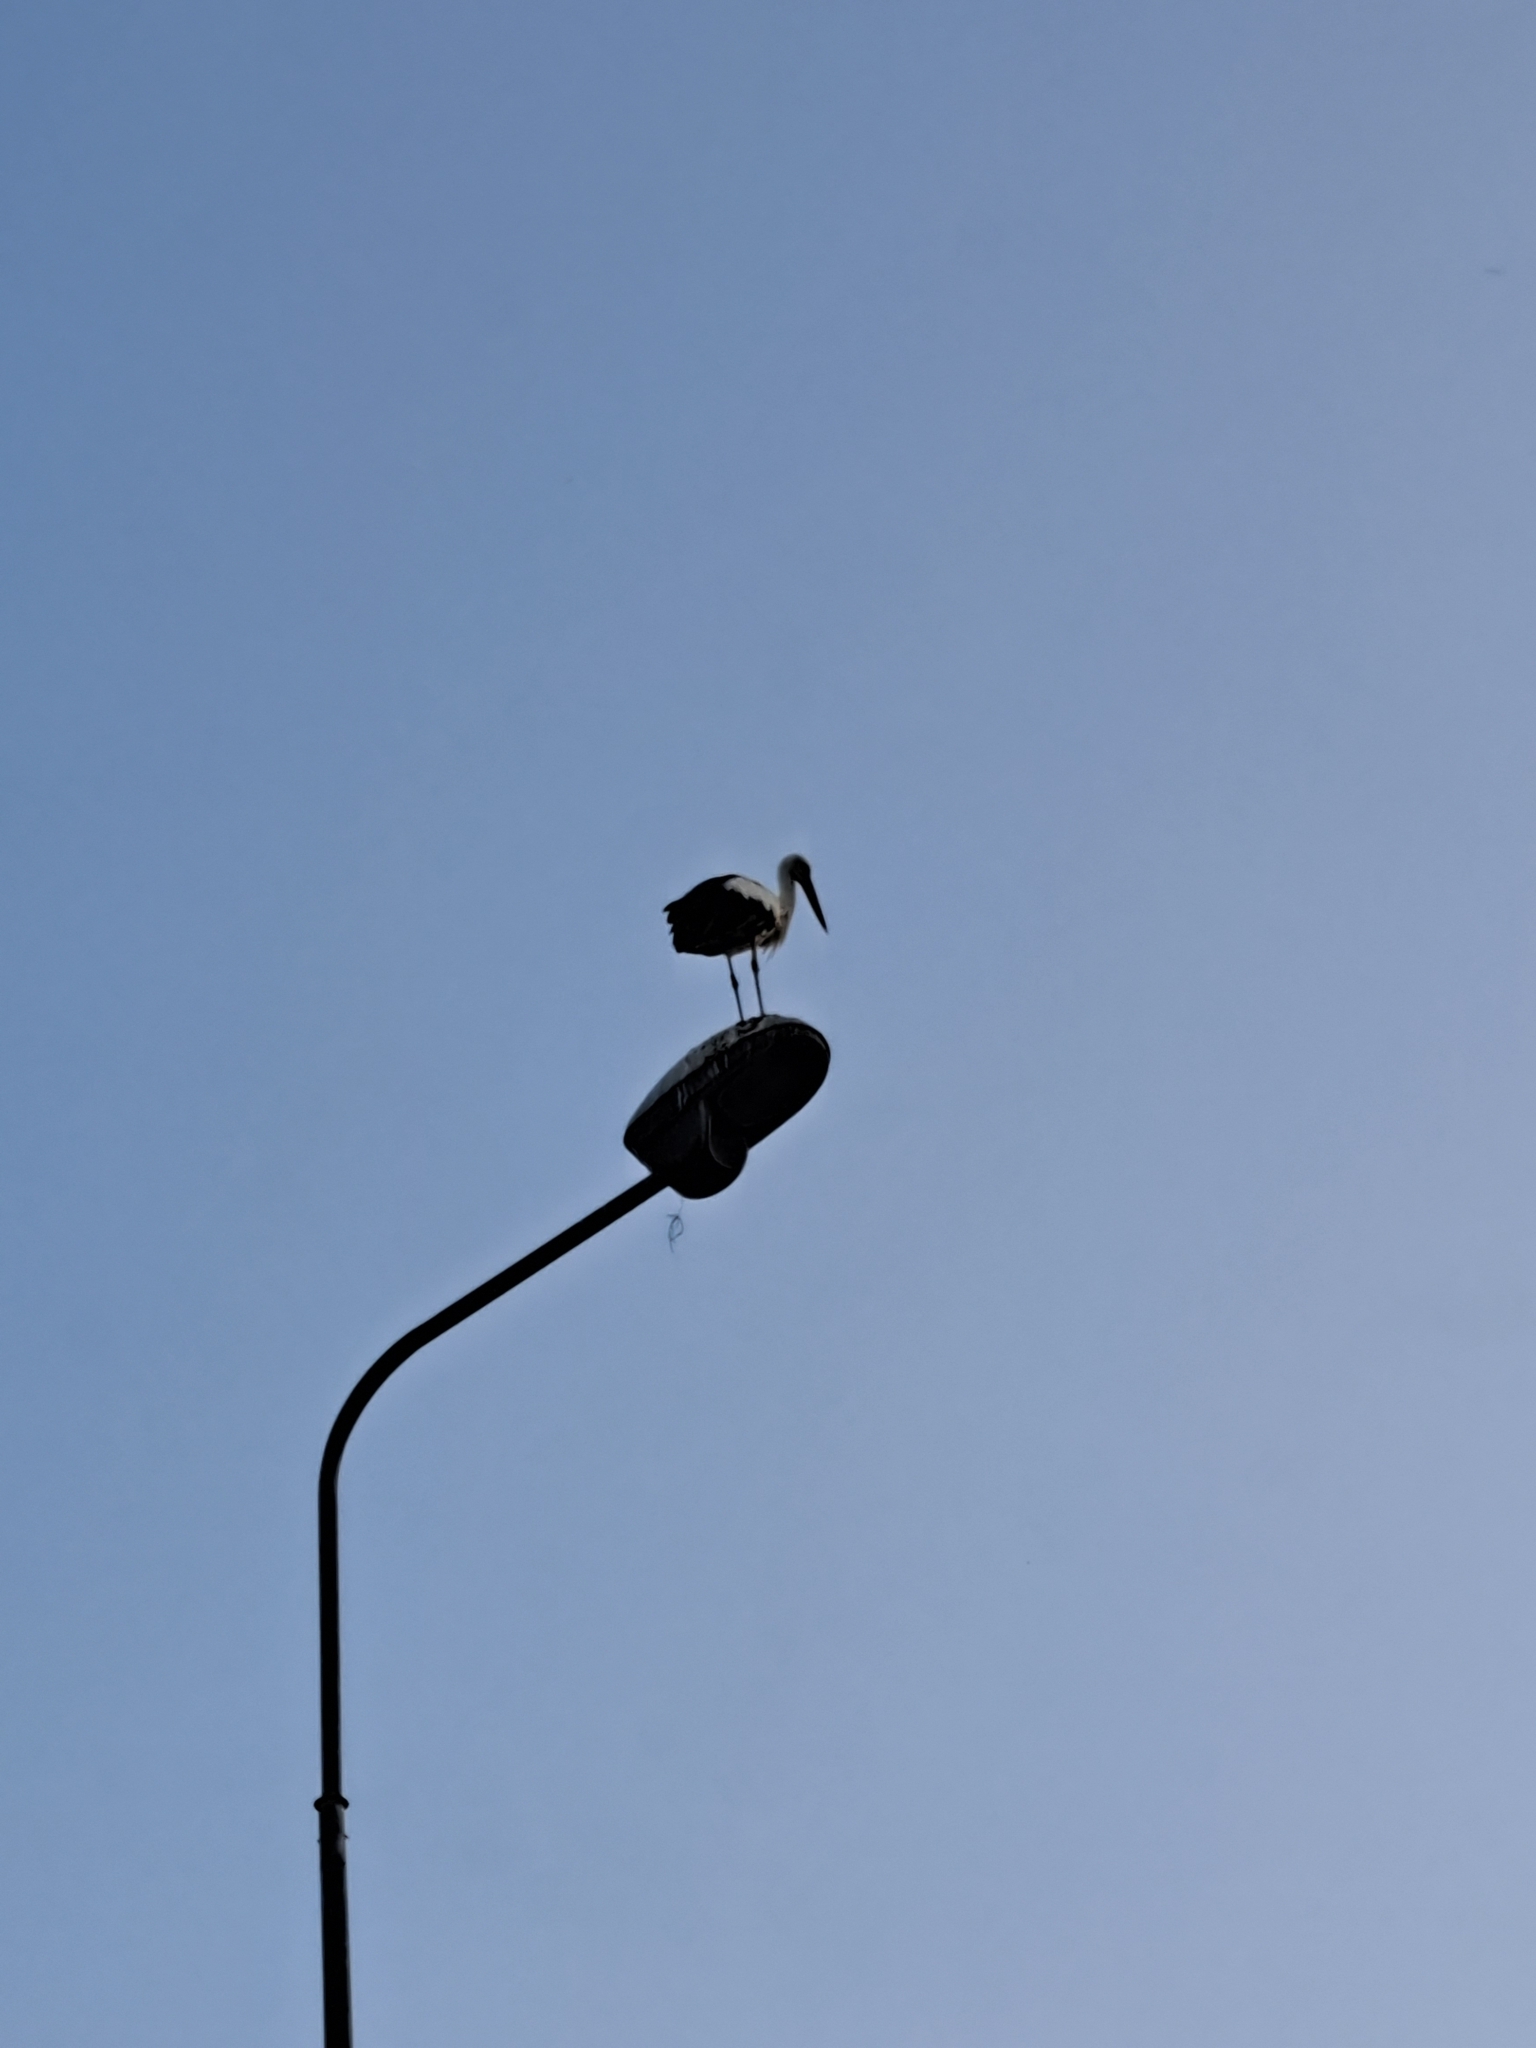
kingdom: Animalia
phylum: Chordata
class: Aves
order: Ciconiiformes
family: Ciconiidae
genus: Ciconia
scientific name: Ciconia ciconia
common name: White stork
